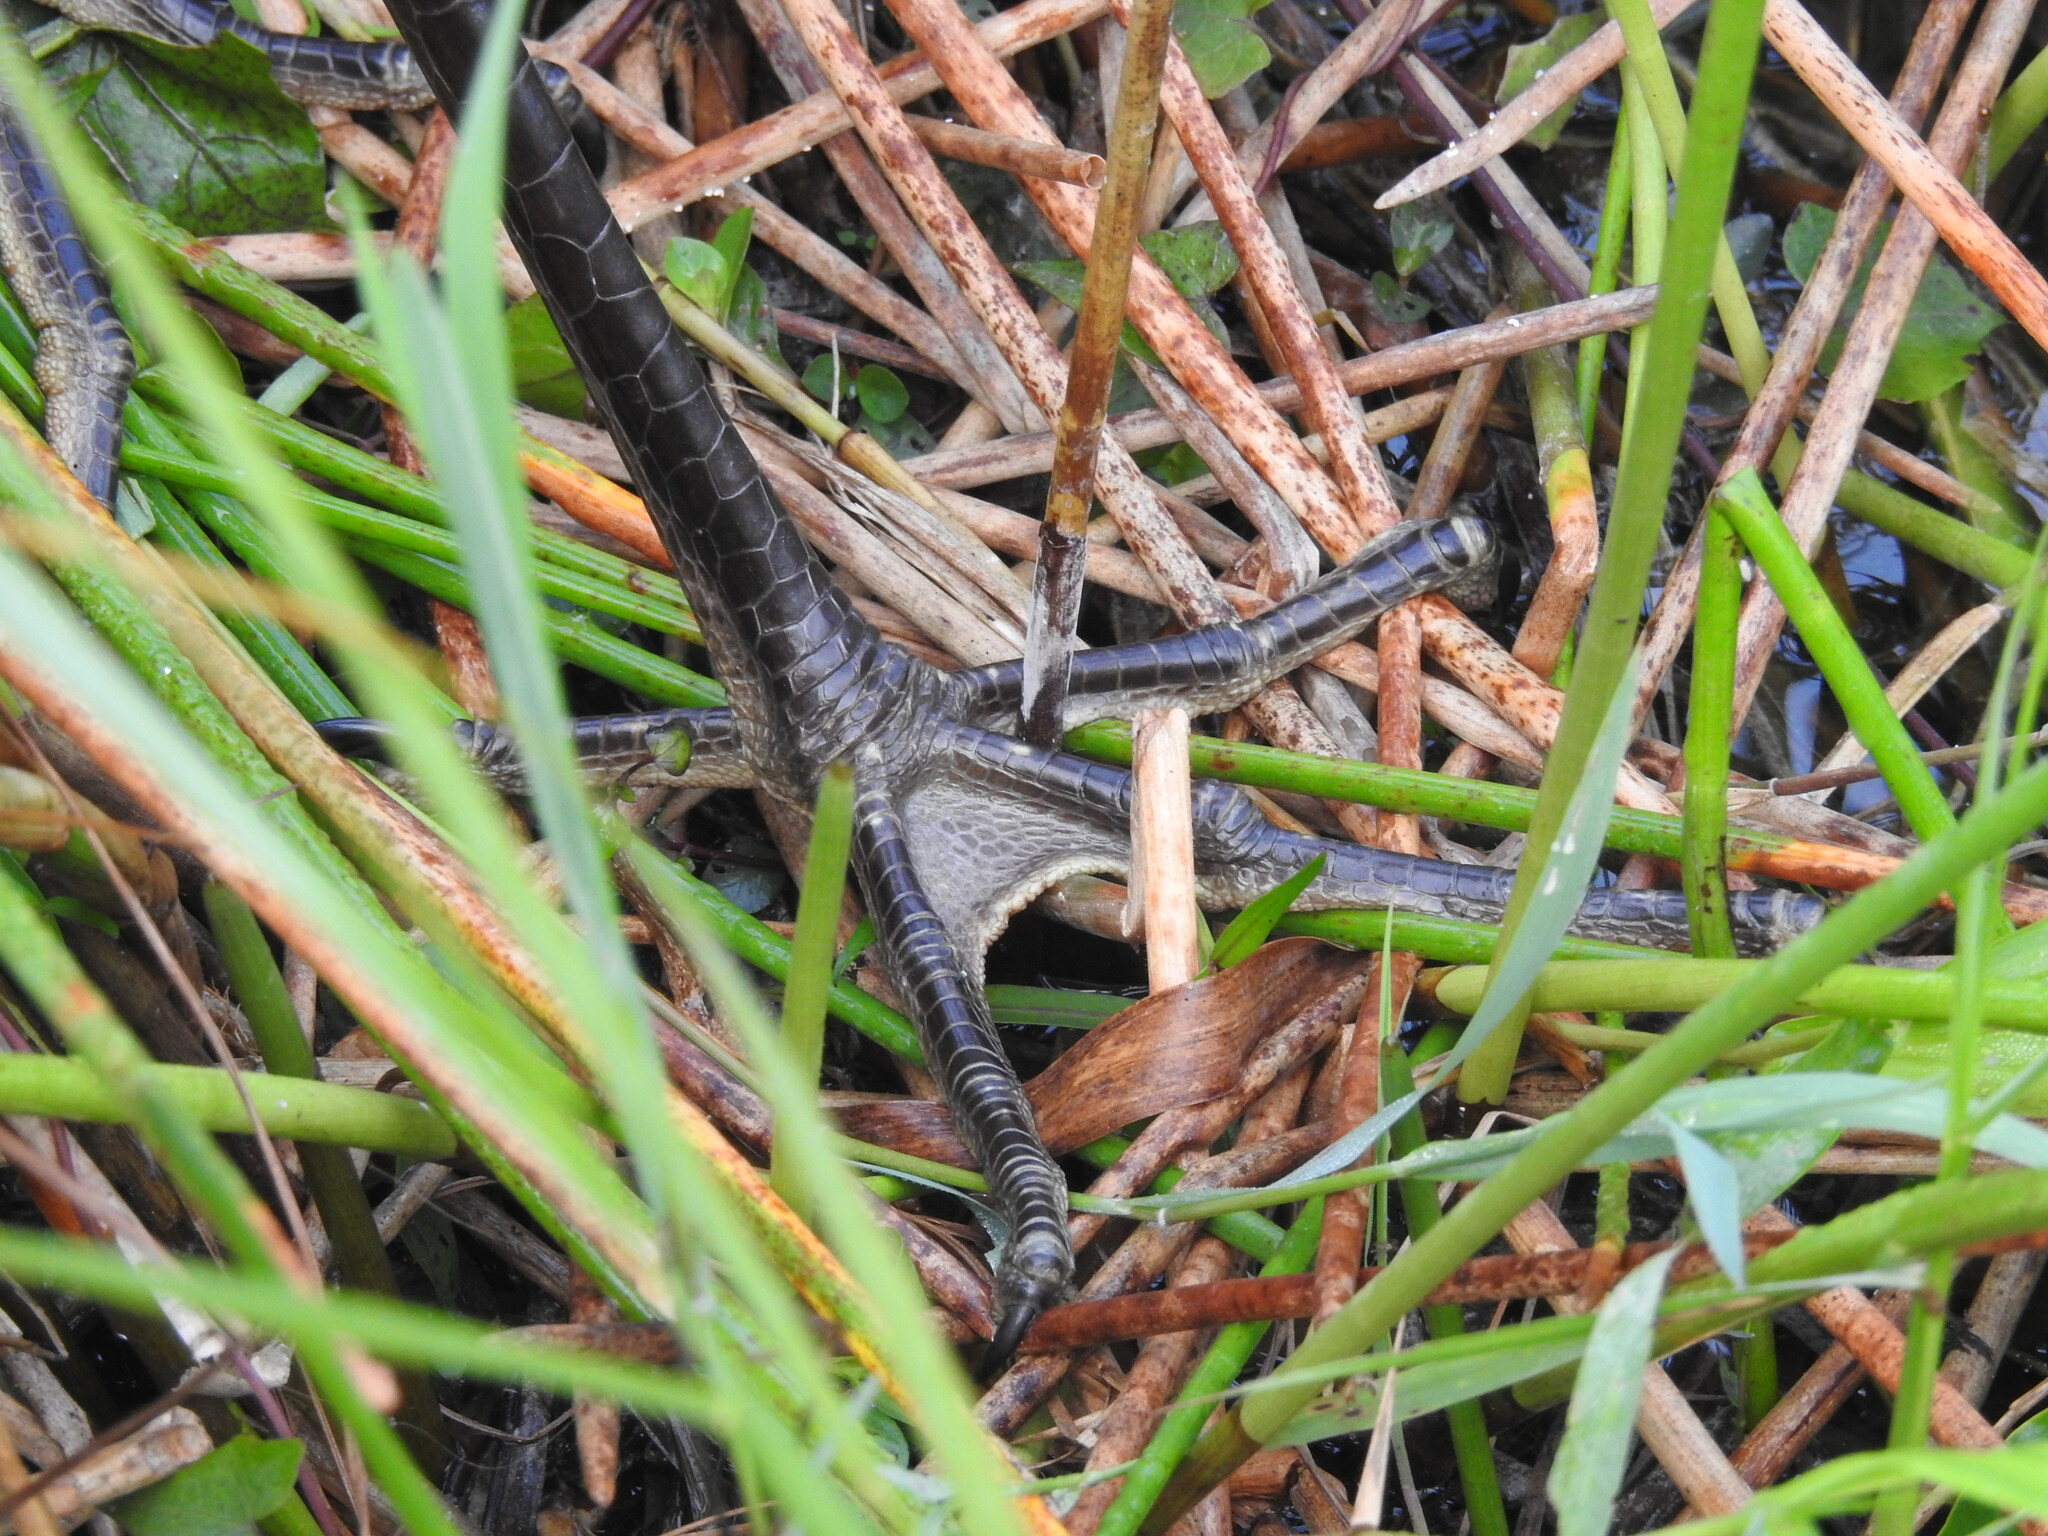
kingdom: Animalia
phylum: Chordata
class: Aves
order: Pelecaniformes
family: Ardeidae
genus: Ardea
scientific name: Ardea herodias
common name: Great blue heron
